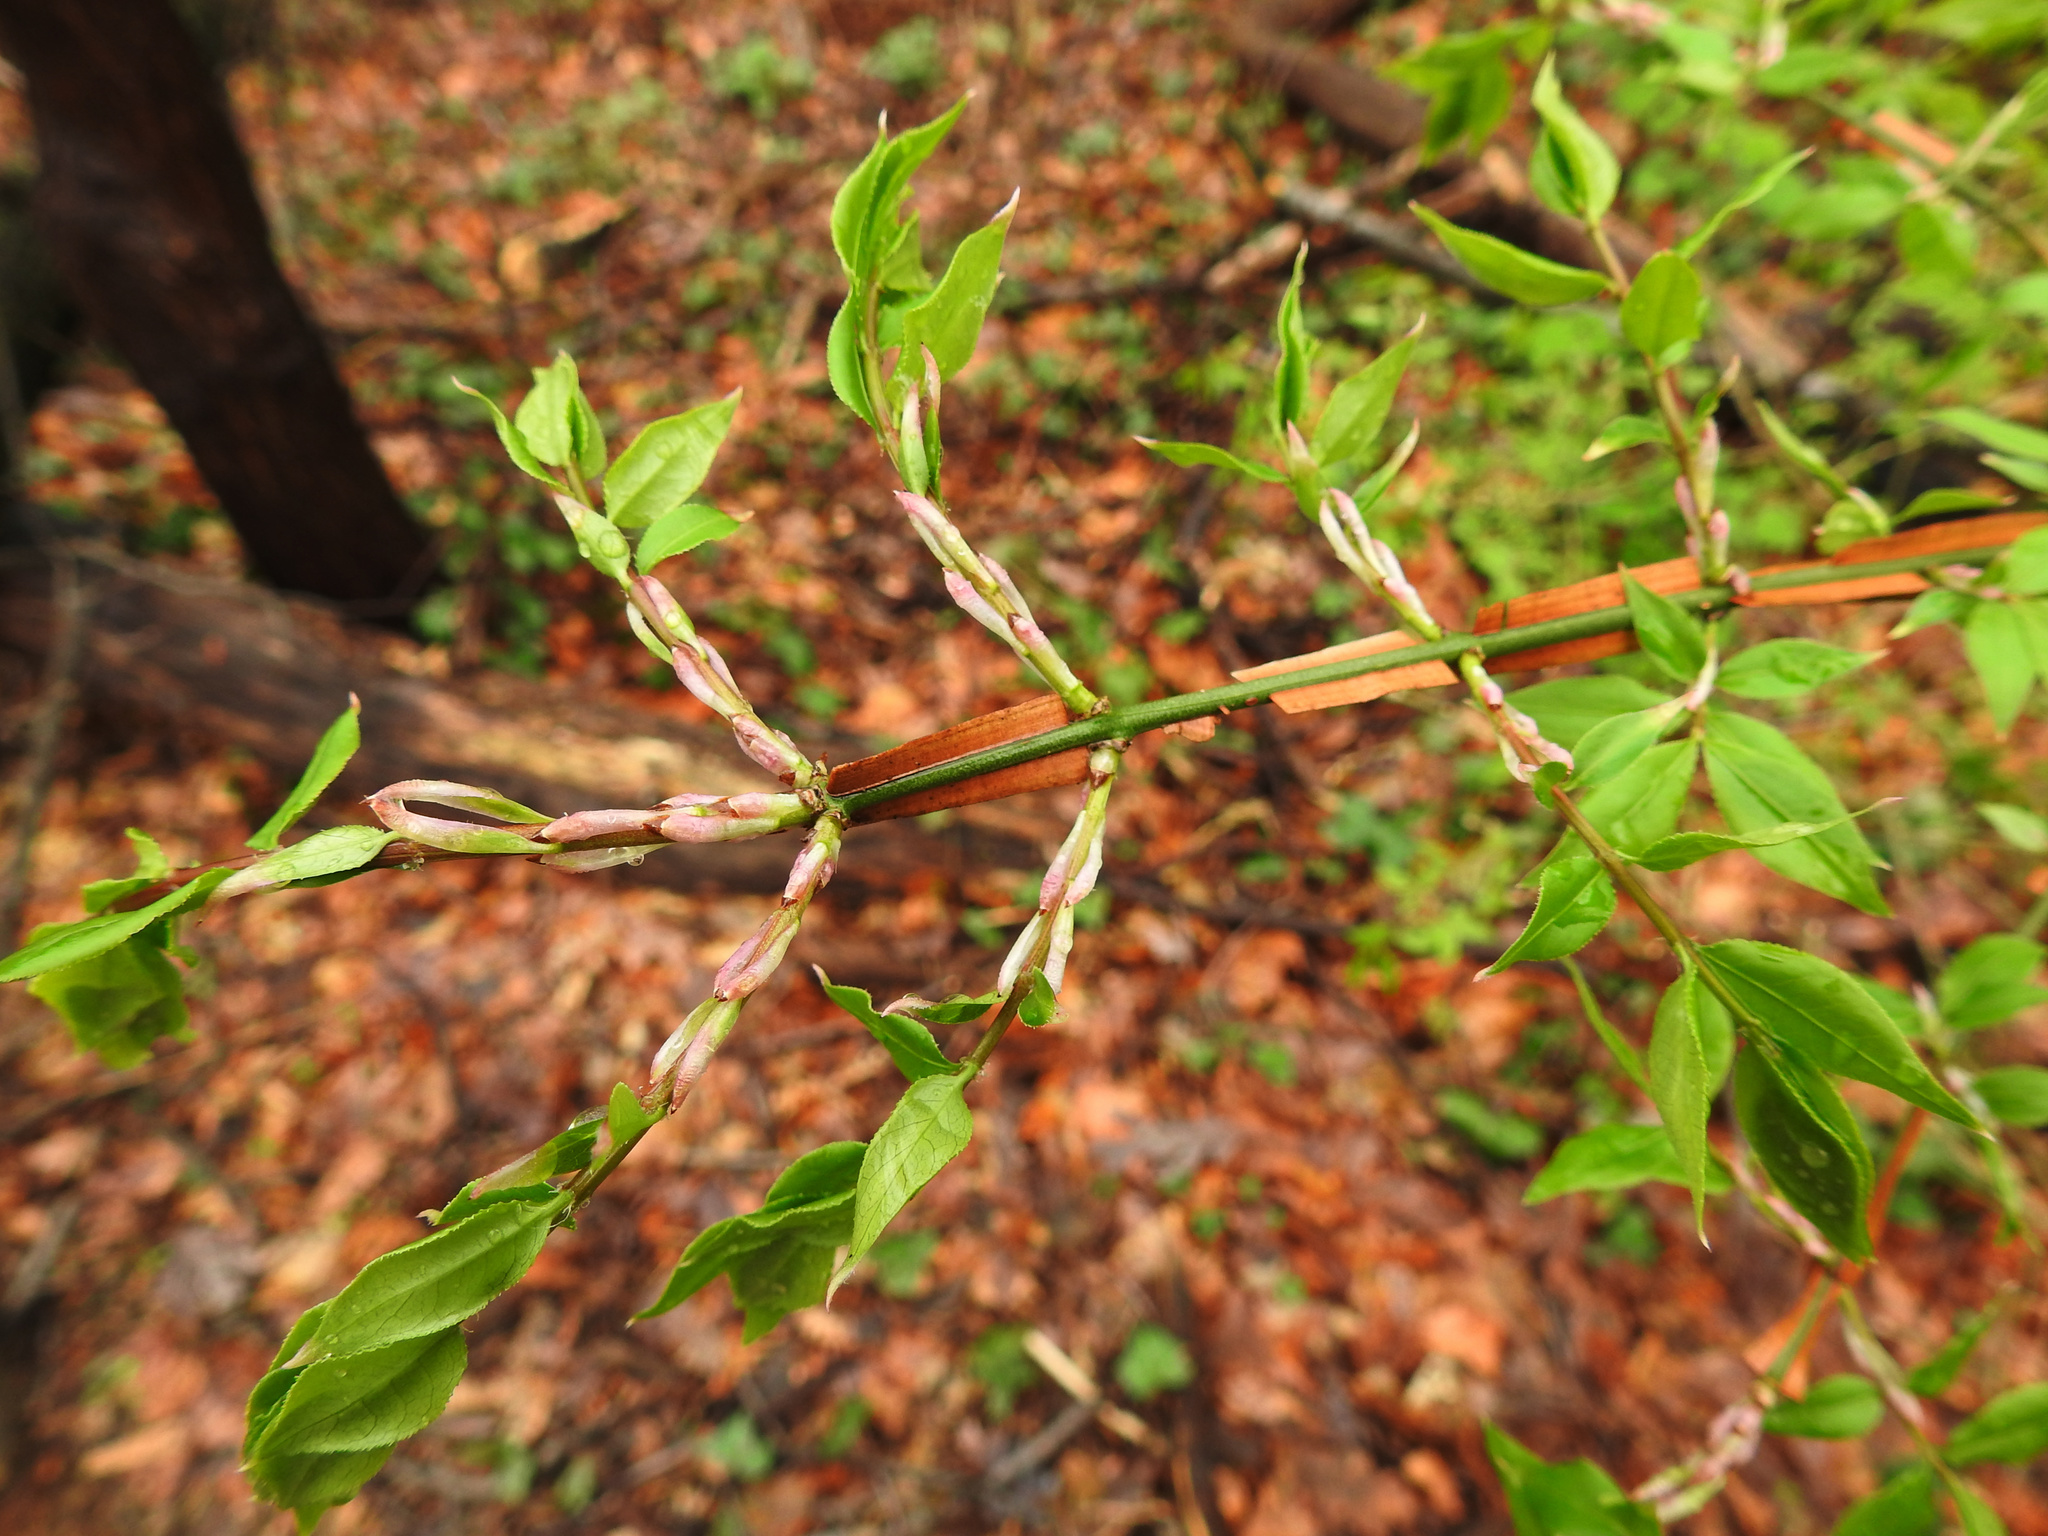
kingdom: Plantae
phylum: Tracheophyta
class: Magnoliopsida
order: Celastrales
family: Celastraceae
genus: Euonymus
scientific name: Euonymus alatus
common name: Winged euonymus
